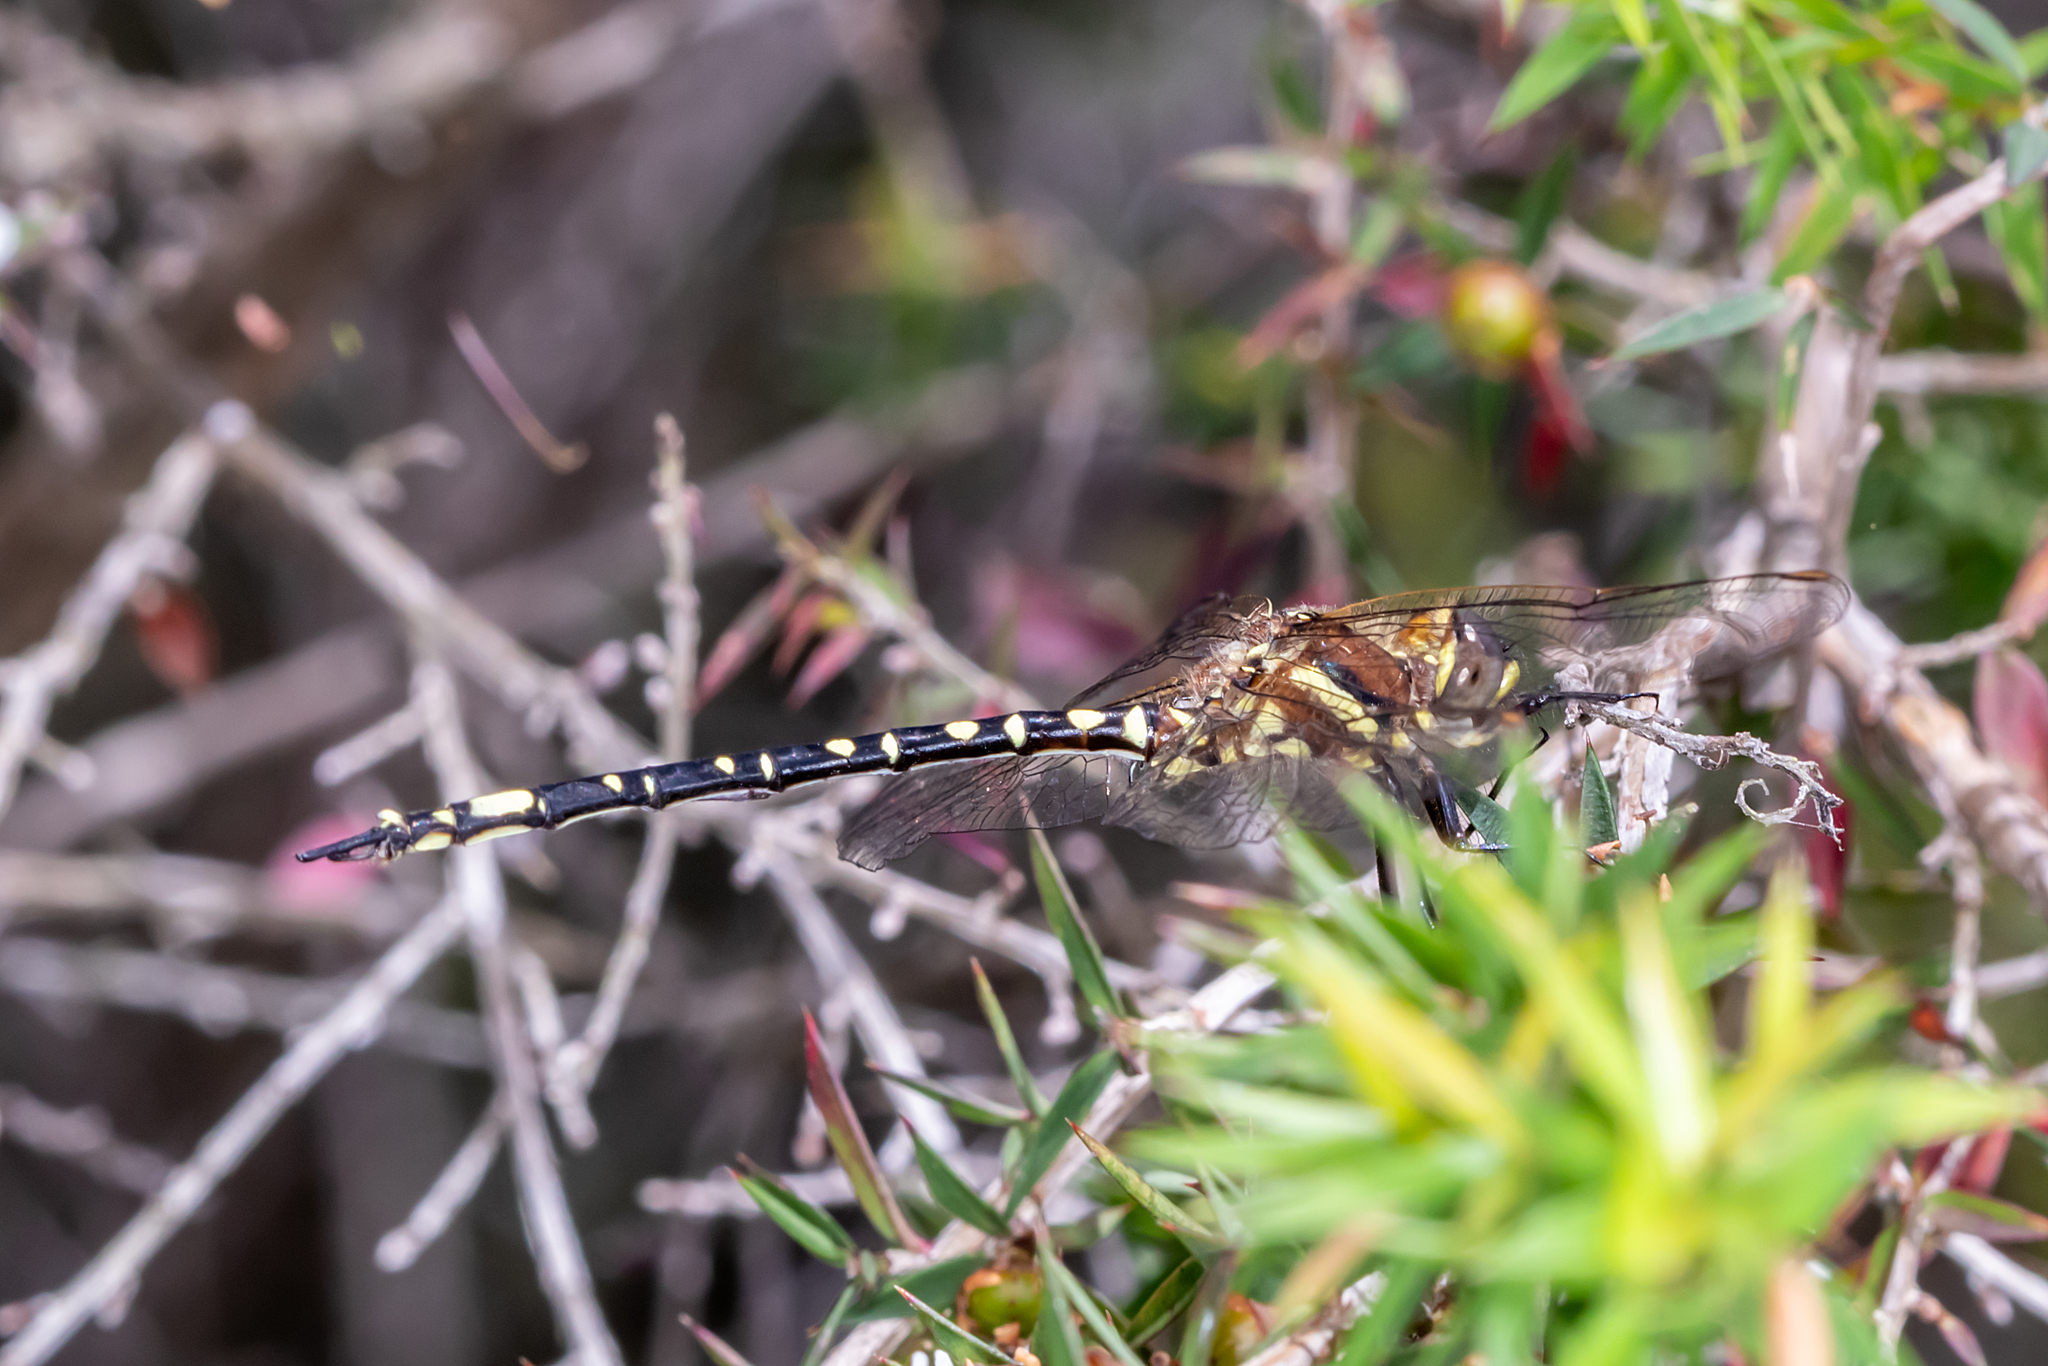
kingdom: Animalia
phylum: Arthropoda
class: Insecta
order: Odonata
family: Synthemistidae
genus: Synthemis
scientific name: Synthemis eustalacta
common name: Swamp tigertail
